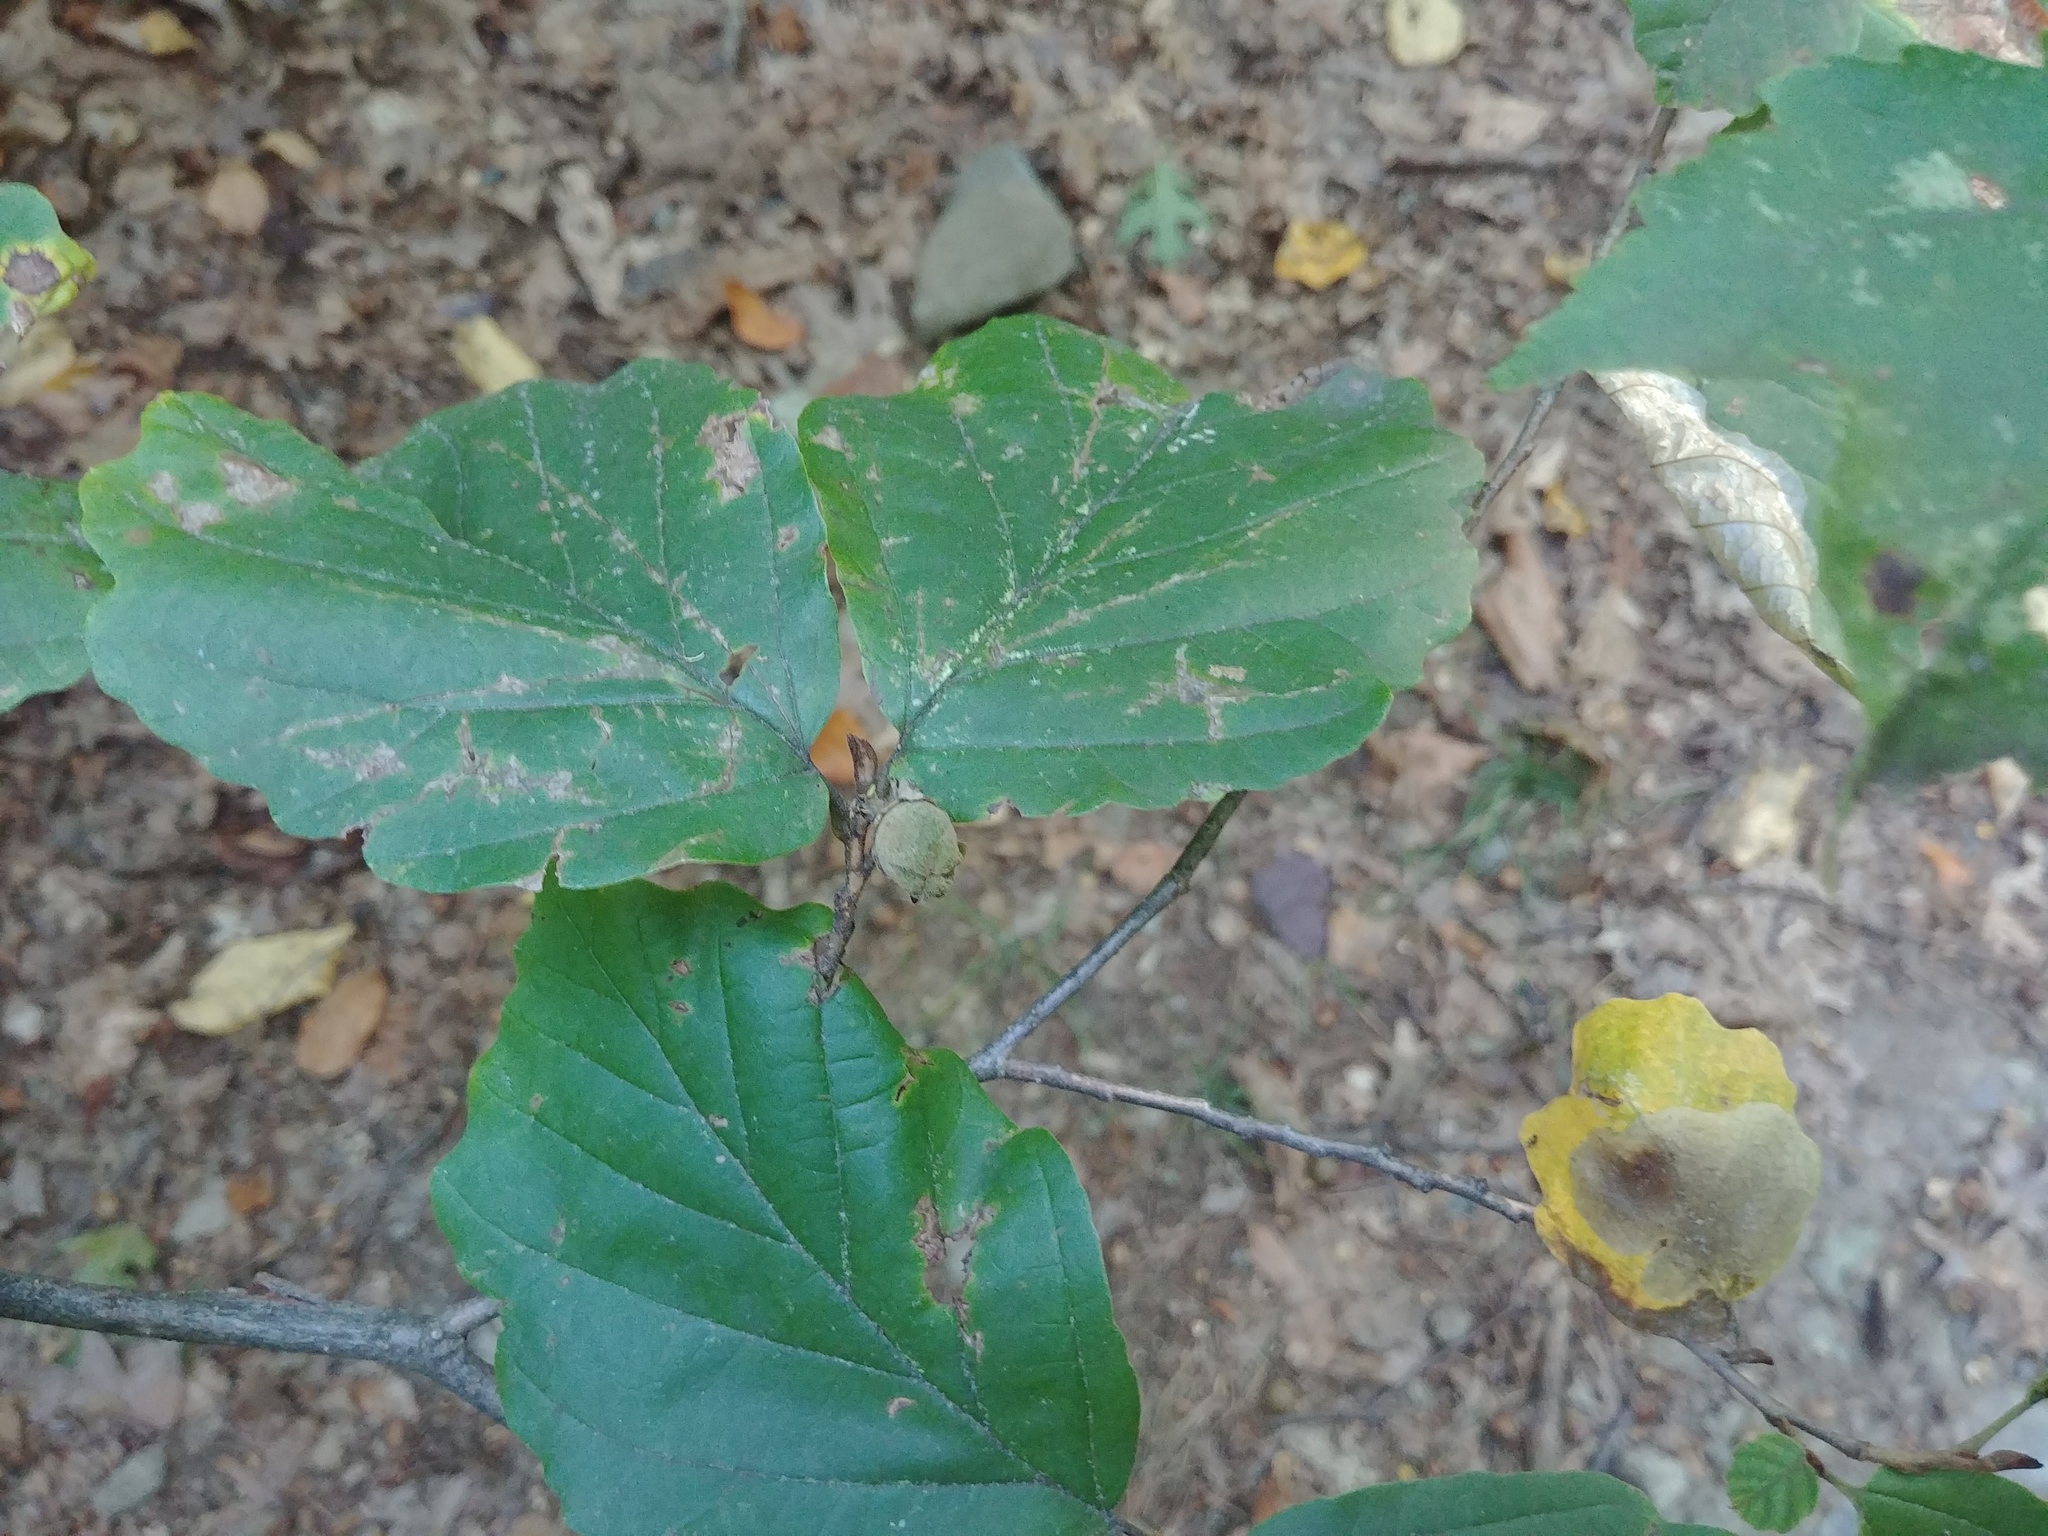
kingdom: Plantae
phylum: Tracheophyta
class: Magnoliopsida
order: Saxifragales
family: Hamamelidaceae
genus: Hamamelis
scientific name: Hamamelis virginiana
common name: Witch-hazel
